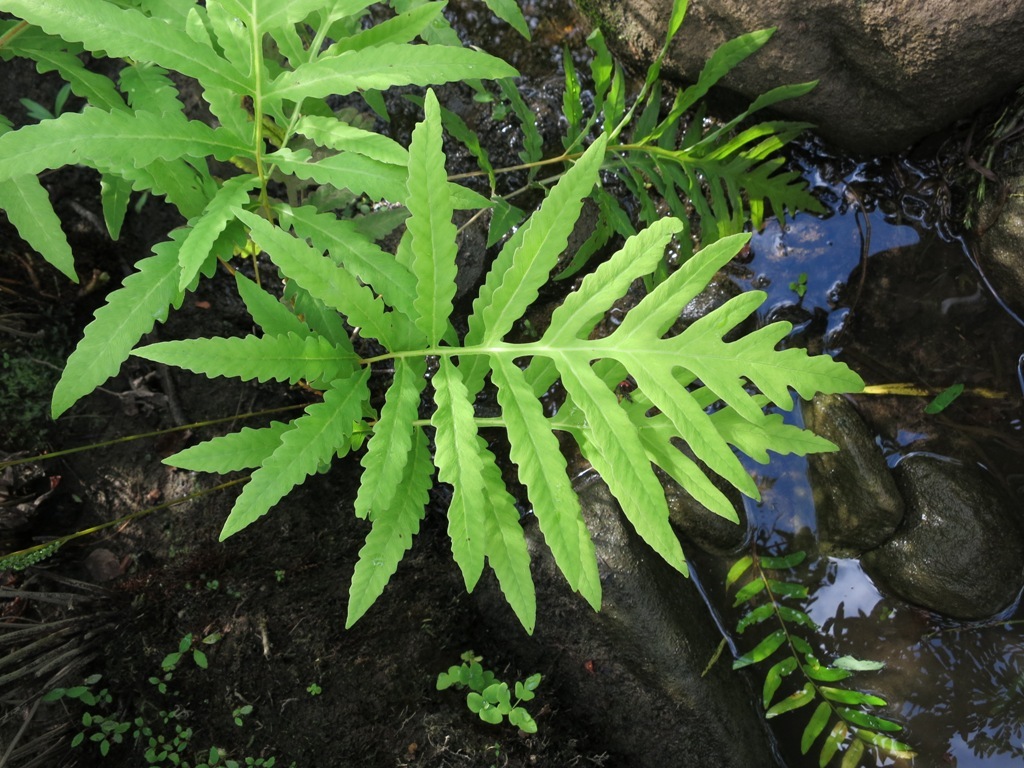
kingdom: Plantae
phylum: Tracheophyta
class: Polypodiopsida
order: Polypodiales
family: Onocleaceae
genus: Onoclea
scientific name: Onoclea sensibilis
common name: Sensitive fern
